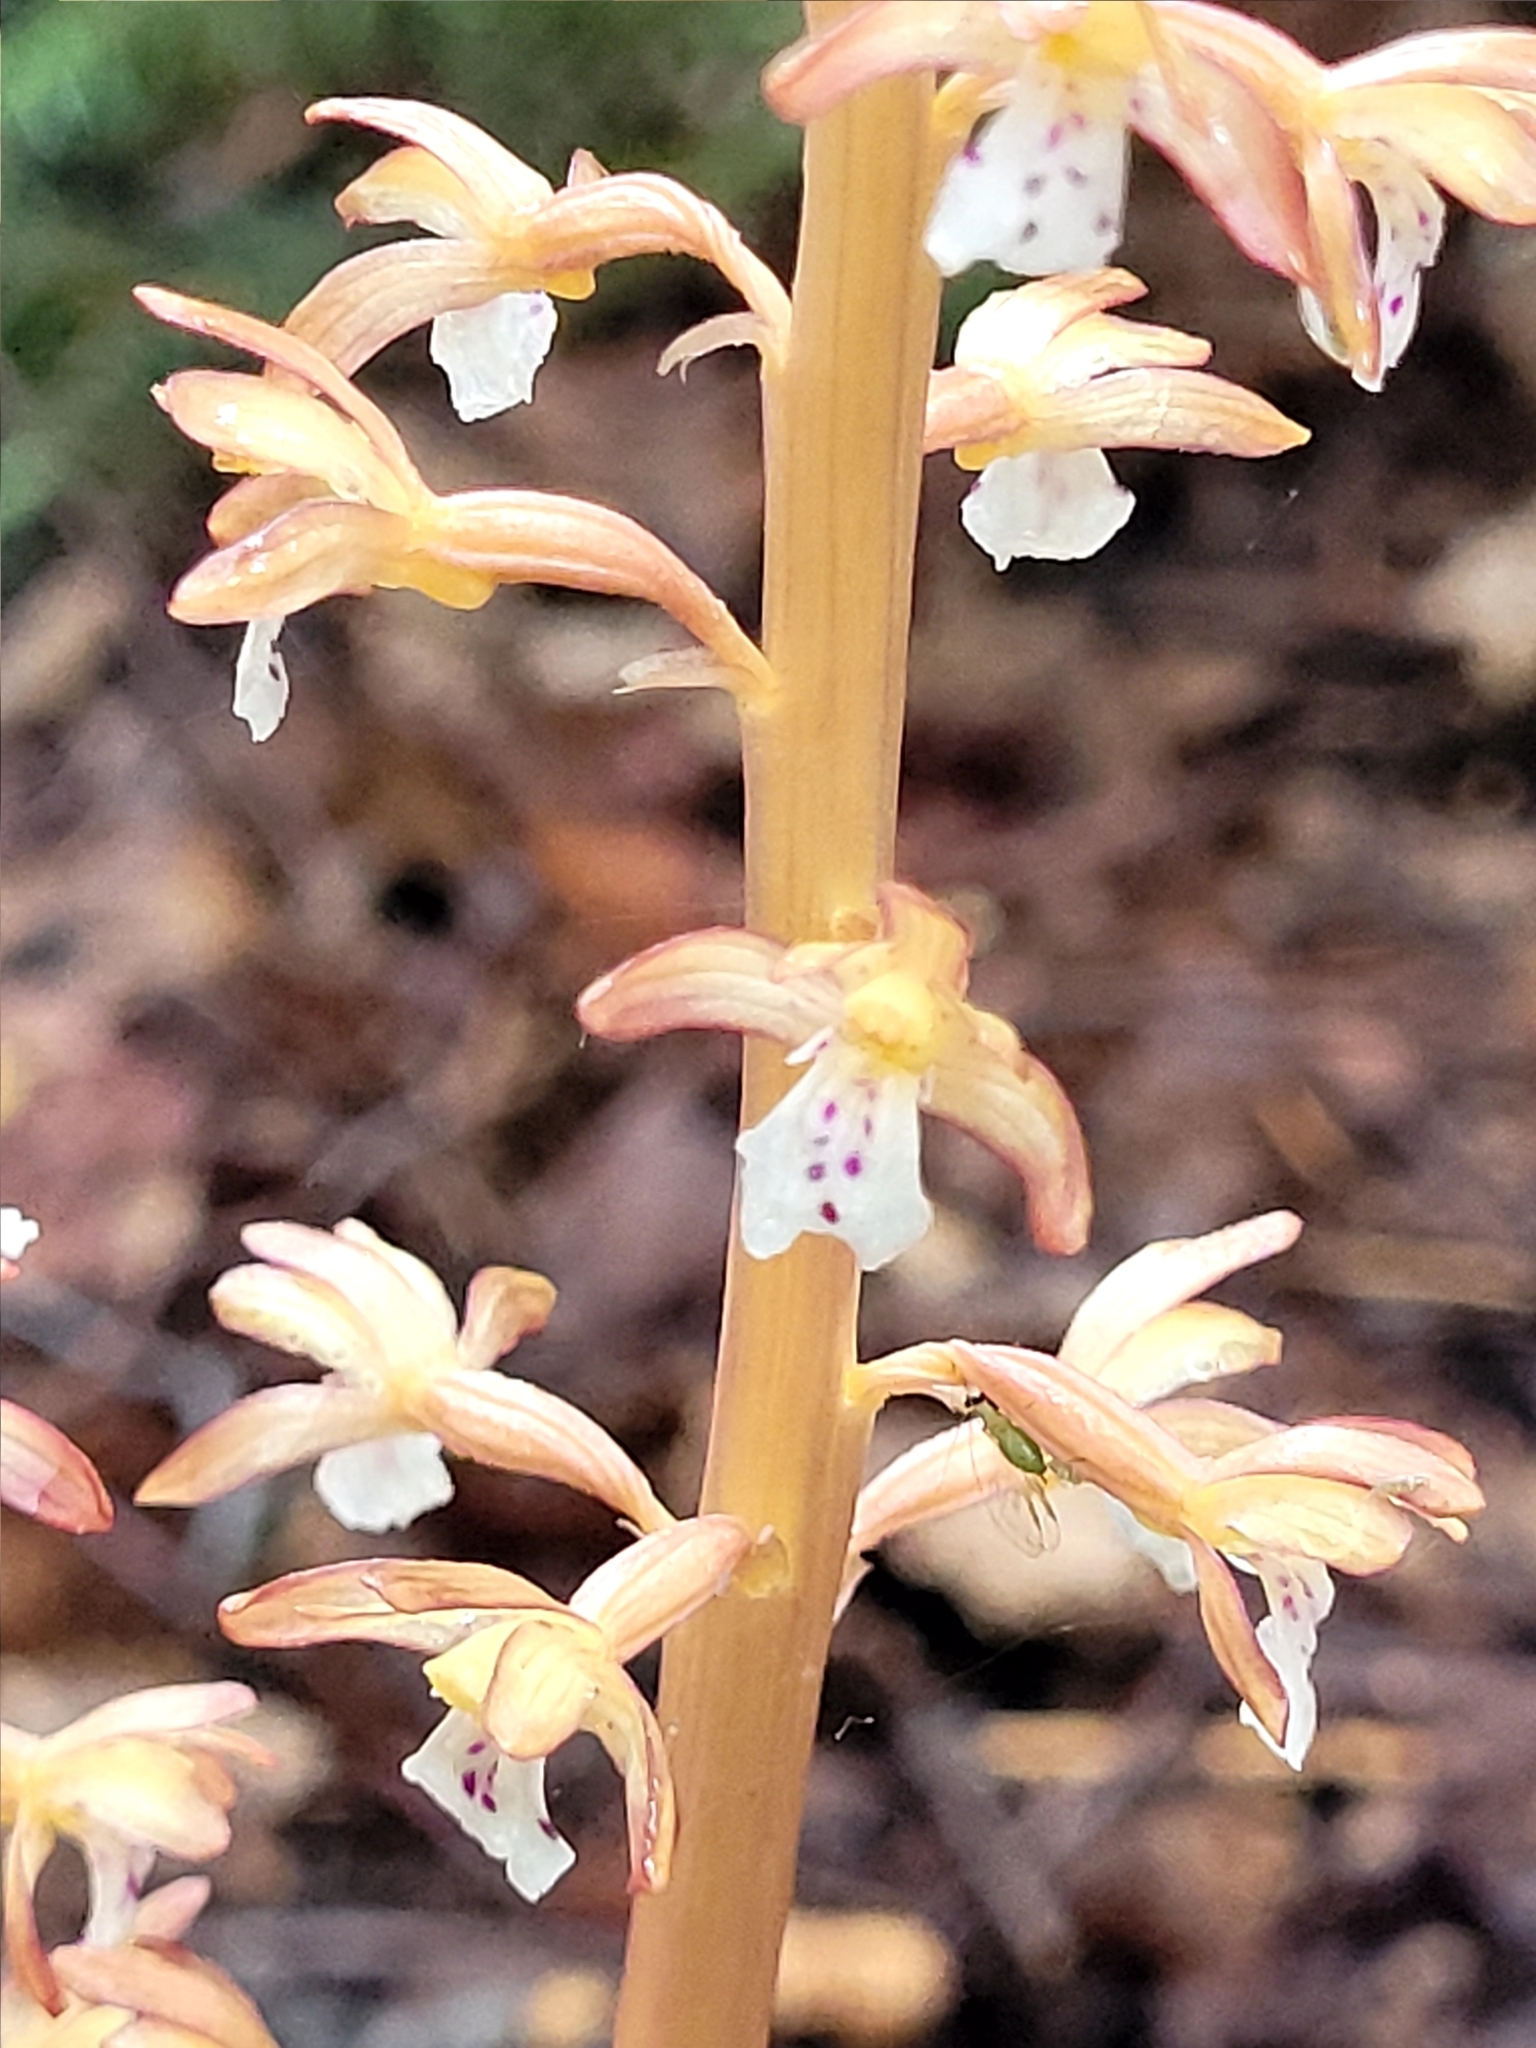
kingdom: Plantae
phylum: Tracheophyta
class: Liliopsida
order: Asparagales
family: Orchidaceae
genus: Corallorhiza
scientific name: Corallorhiza maculata
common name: Spotted coralroot
